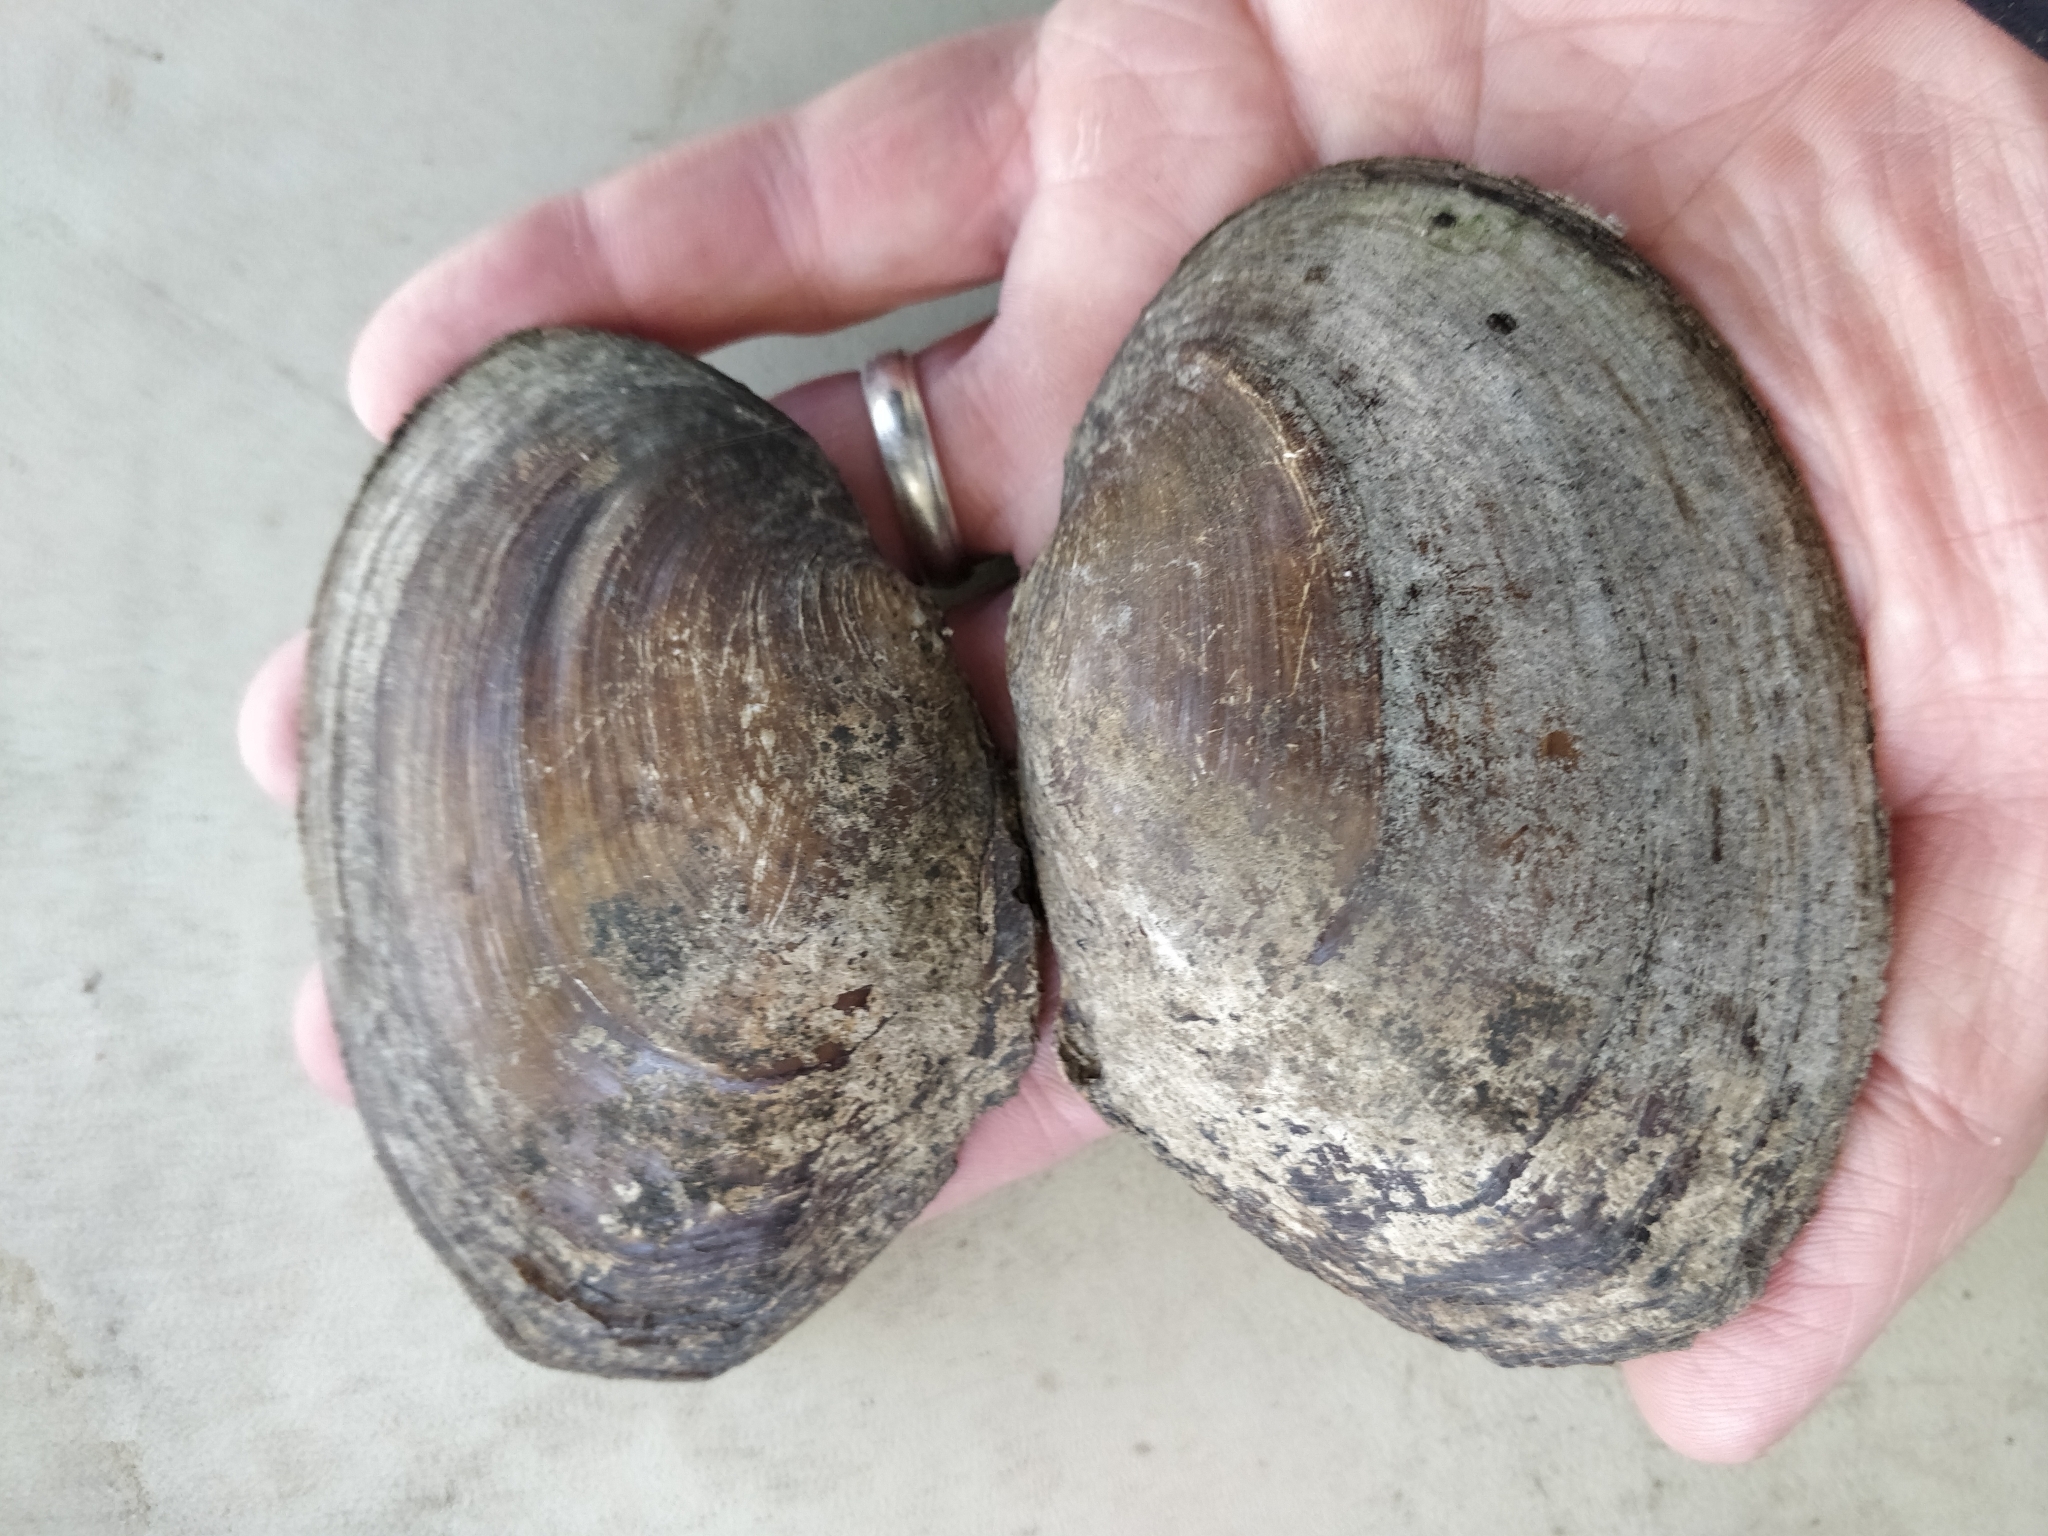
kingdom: Animalia
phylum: Mollusca
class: Bivalvia
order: Unionida
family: Unionidae
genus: Lasmigona
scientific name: Lasmigona complanata
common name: White heelsplitter
